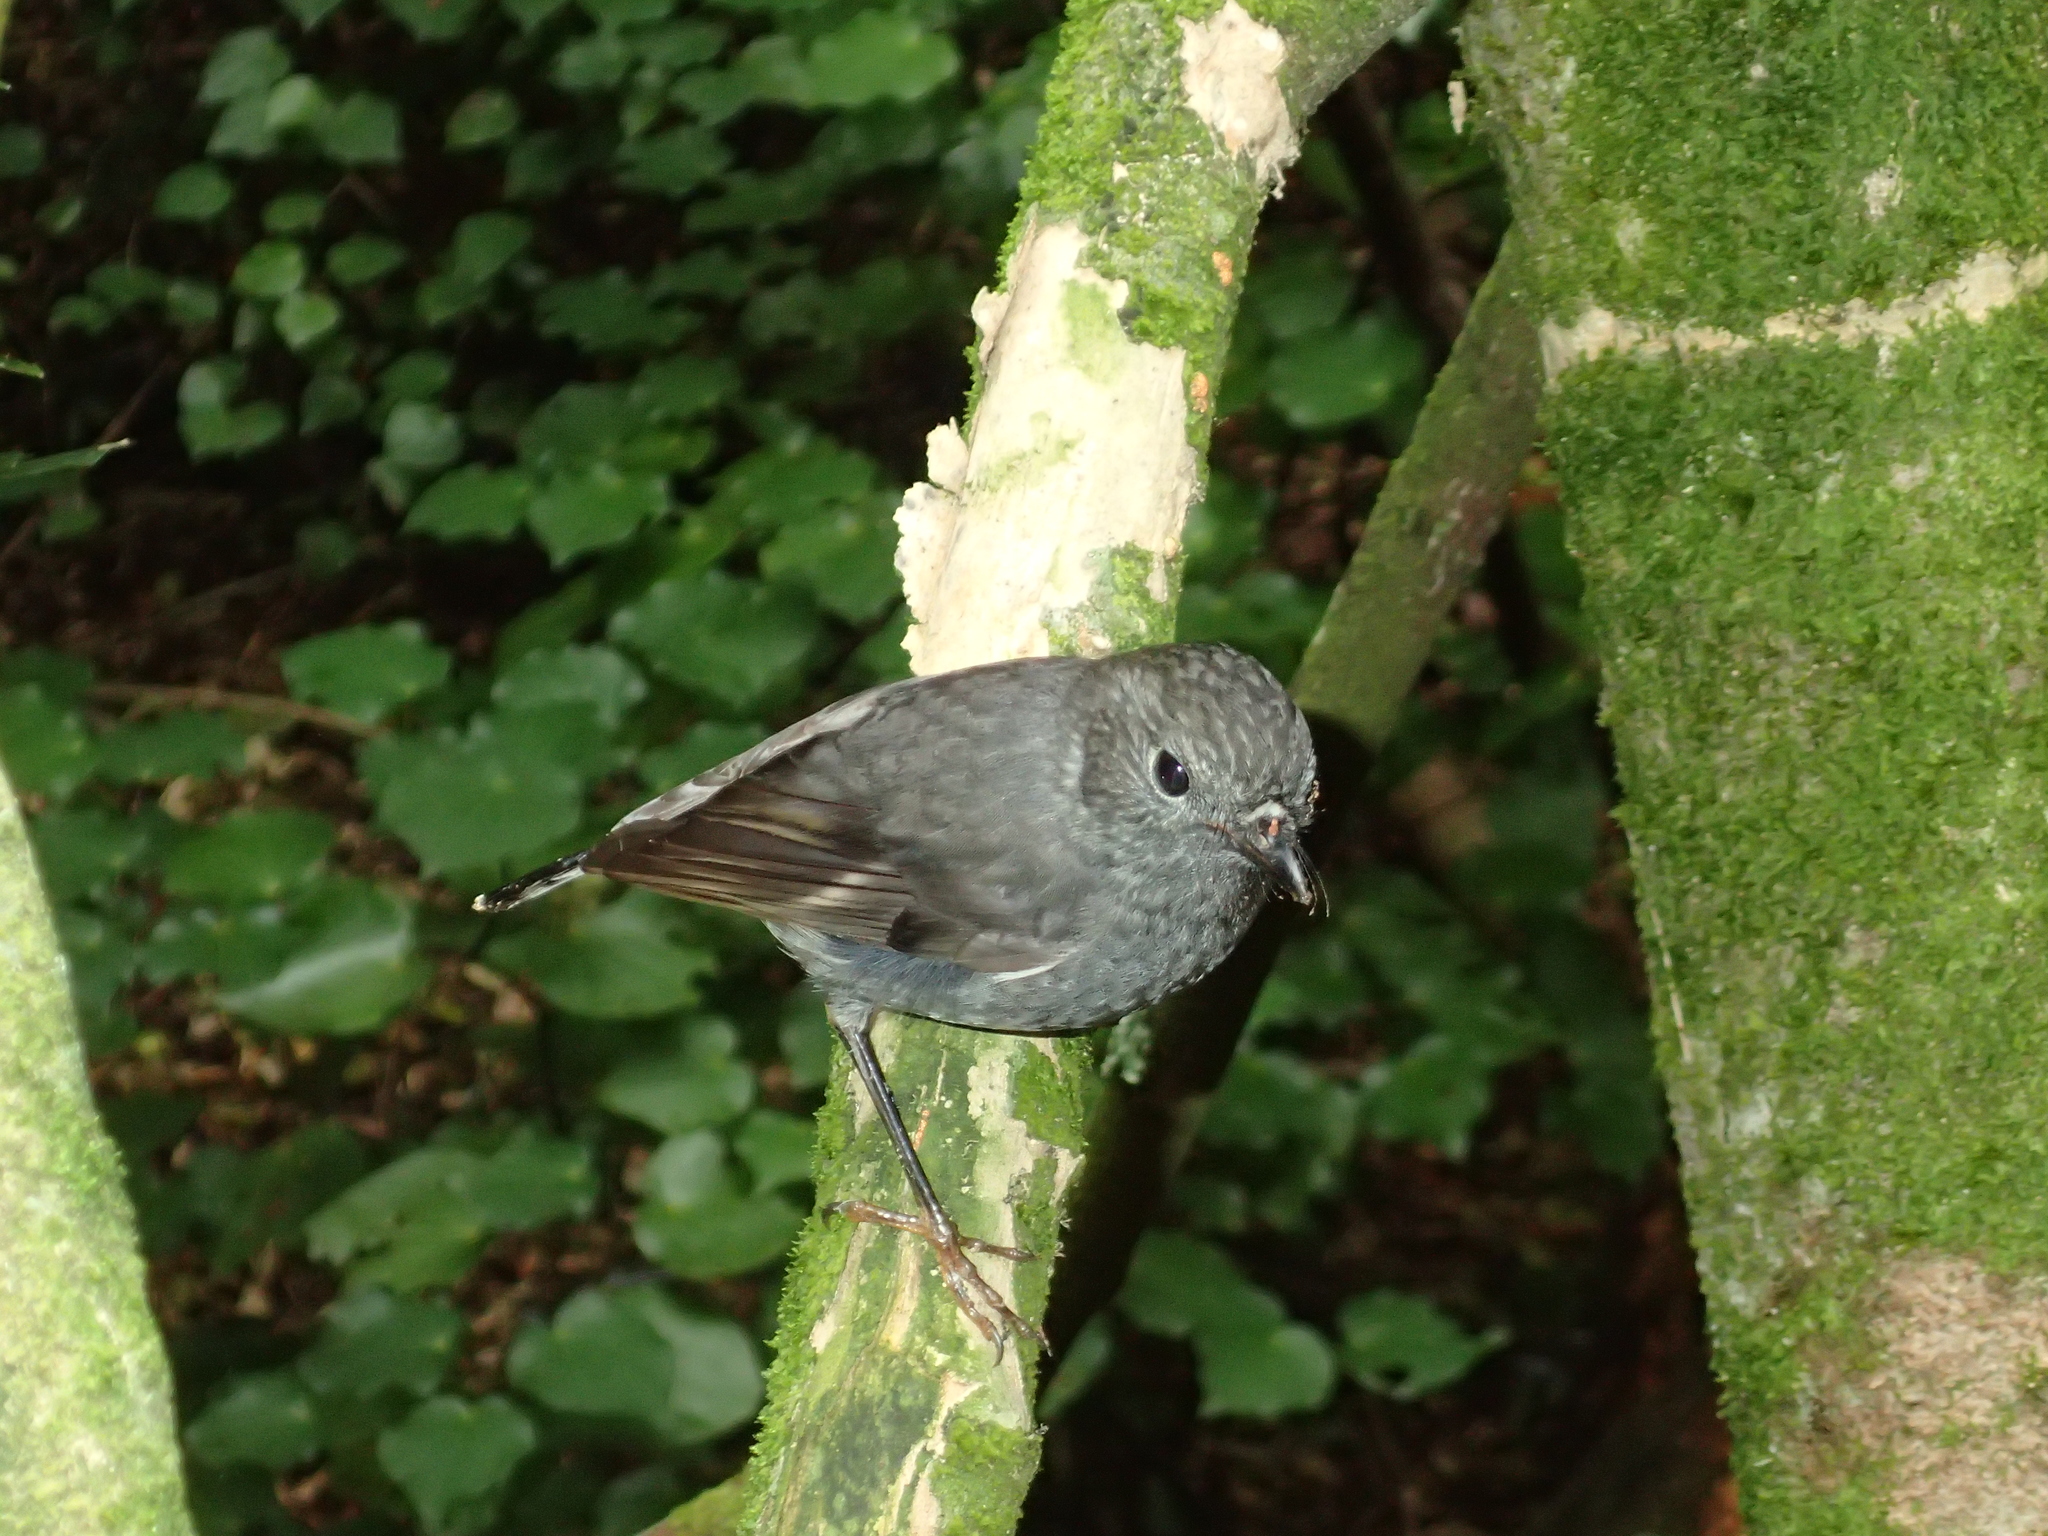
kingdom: Animalia
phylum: Chordata
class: Aves
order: Passeriformes
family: Petroicidae
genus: Petroica
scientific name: Petroica australis
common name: New zealand robin
